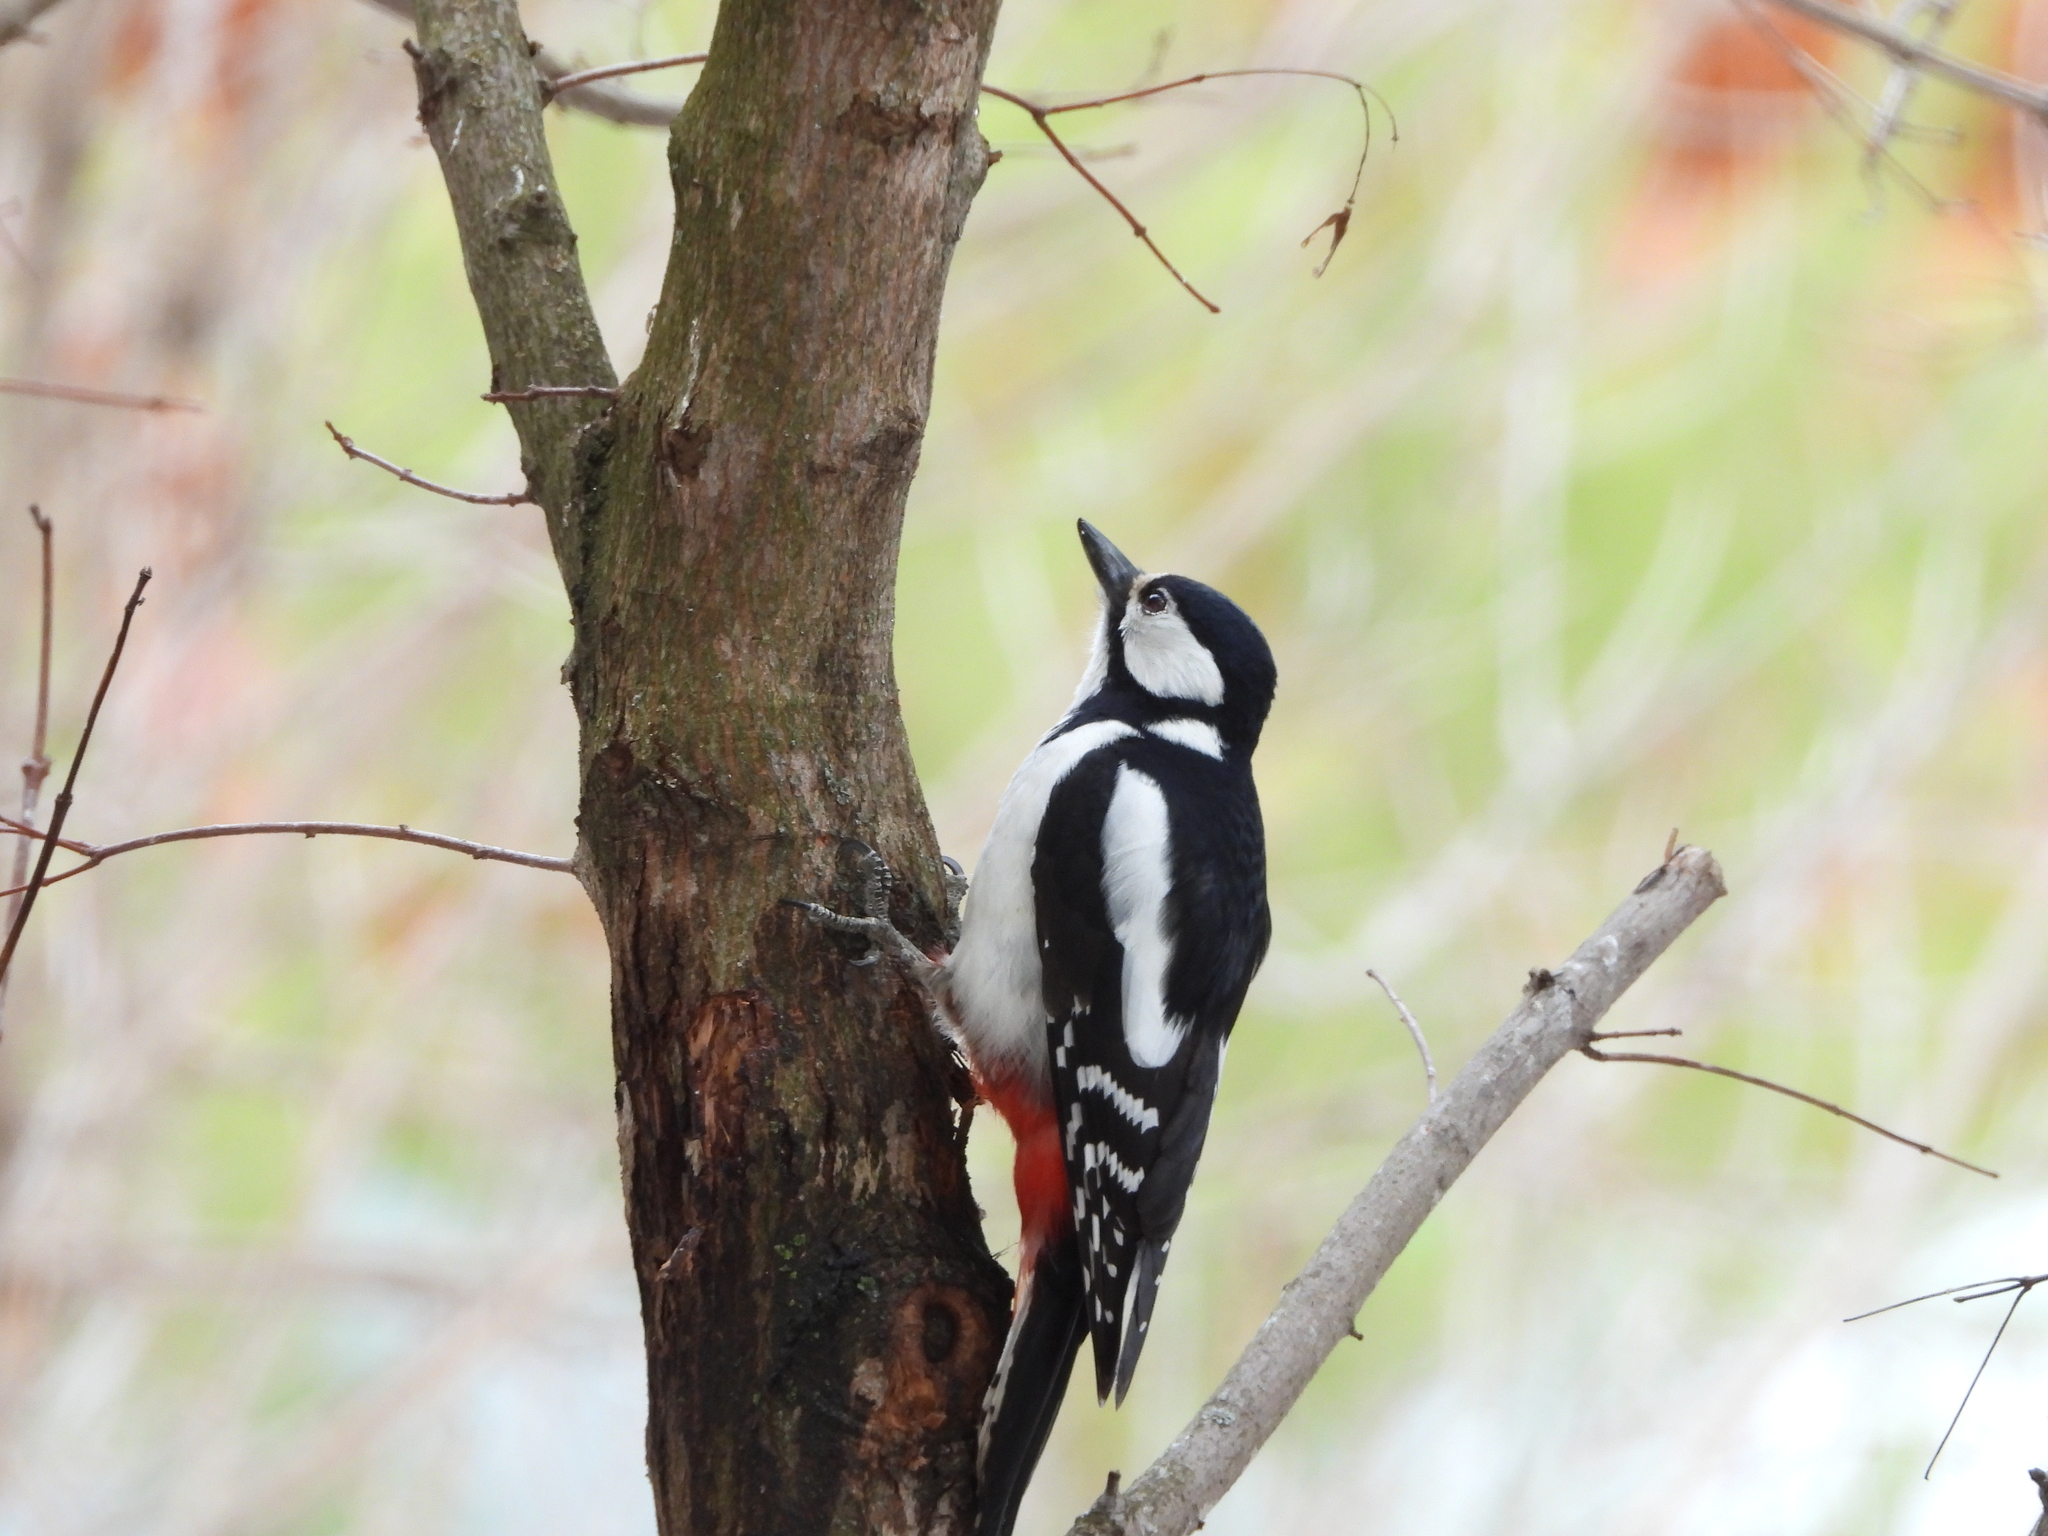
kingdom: Animalia
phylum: Chordata
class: Aves
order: Piciformes
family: Picidae
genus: Dendrocopos
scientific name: Dendrocopos major
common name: Great spotted woodpecker
